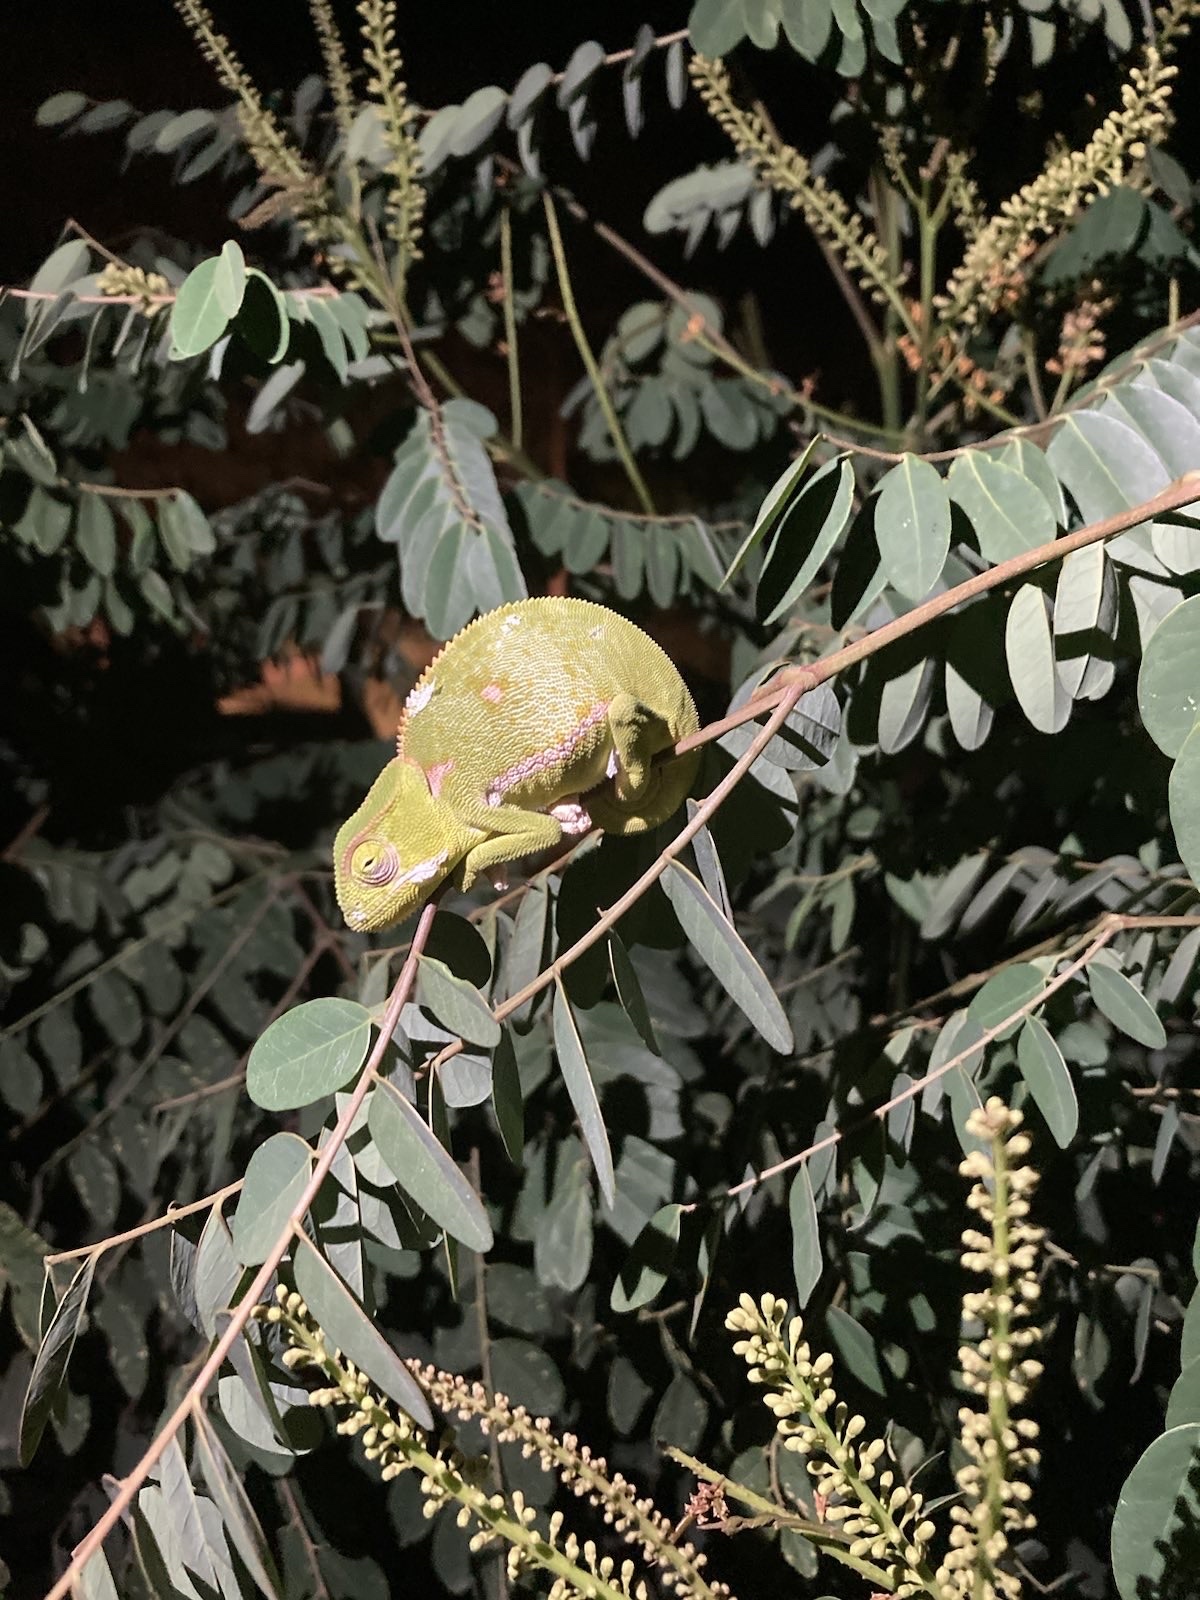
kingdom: Animalia
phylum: Chordata
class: Squamata
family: Chamaeleonidae
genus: Chamaeleo
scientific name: Chamaeleo dilepis
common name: Flapneck chameleon
